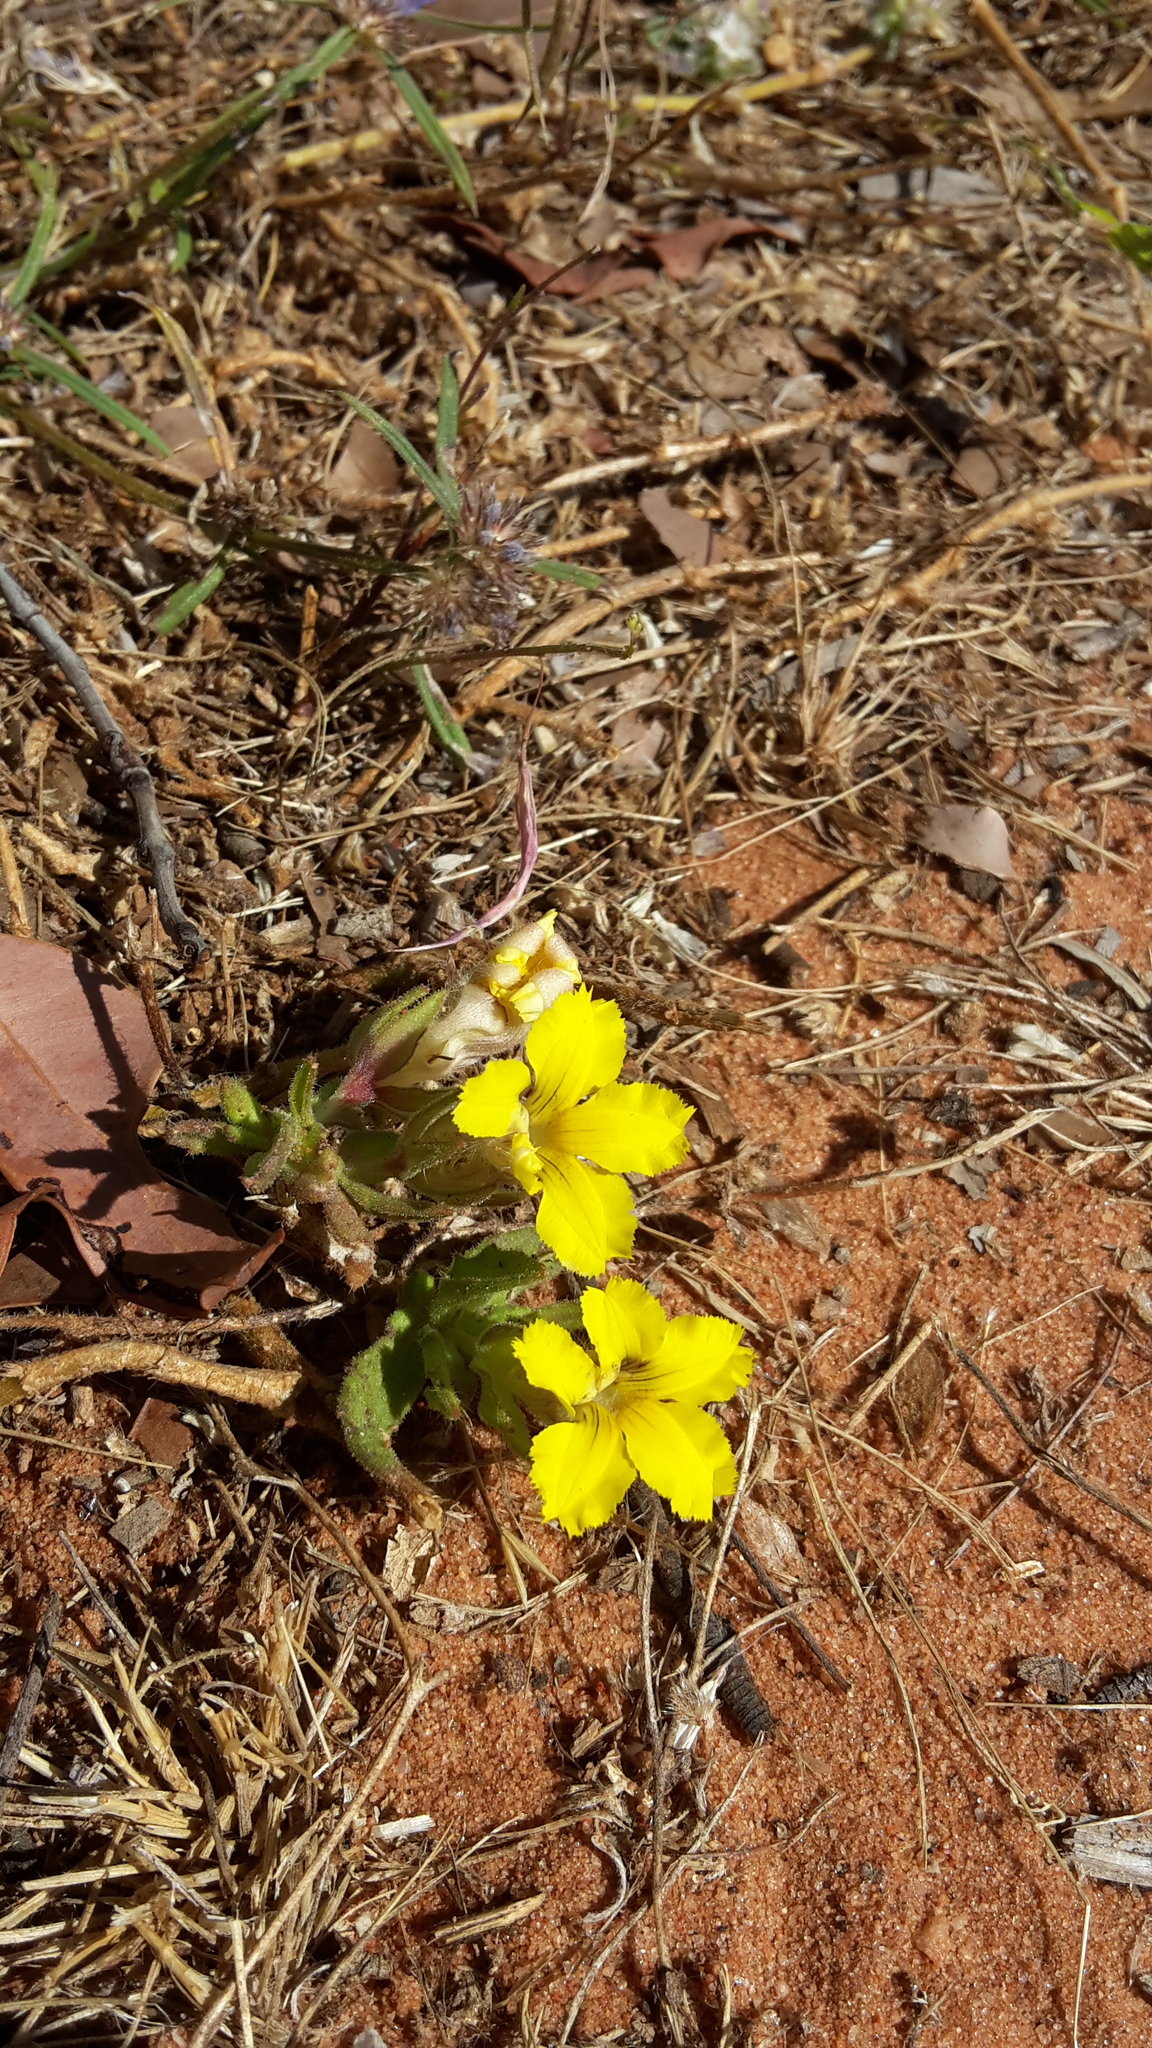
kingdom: Plantae
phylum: Tracheophyta
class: Magnoliopsida
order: Asterales
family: Goodeniaceae
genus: Goodenia
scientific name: Goodenia sepalosa
